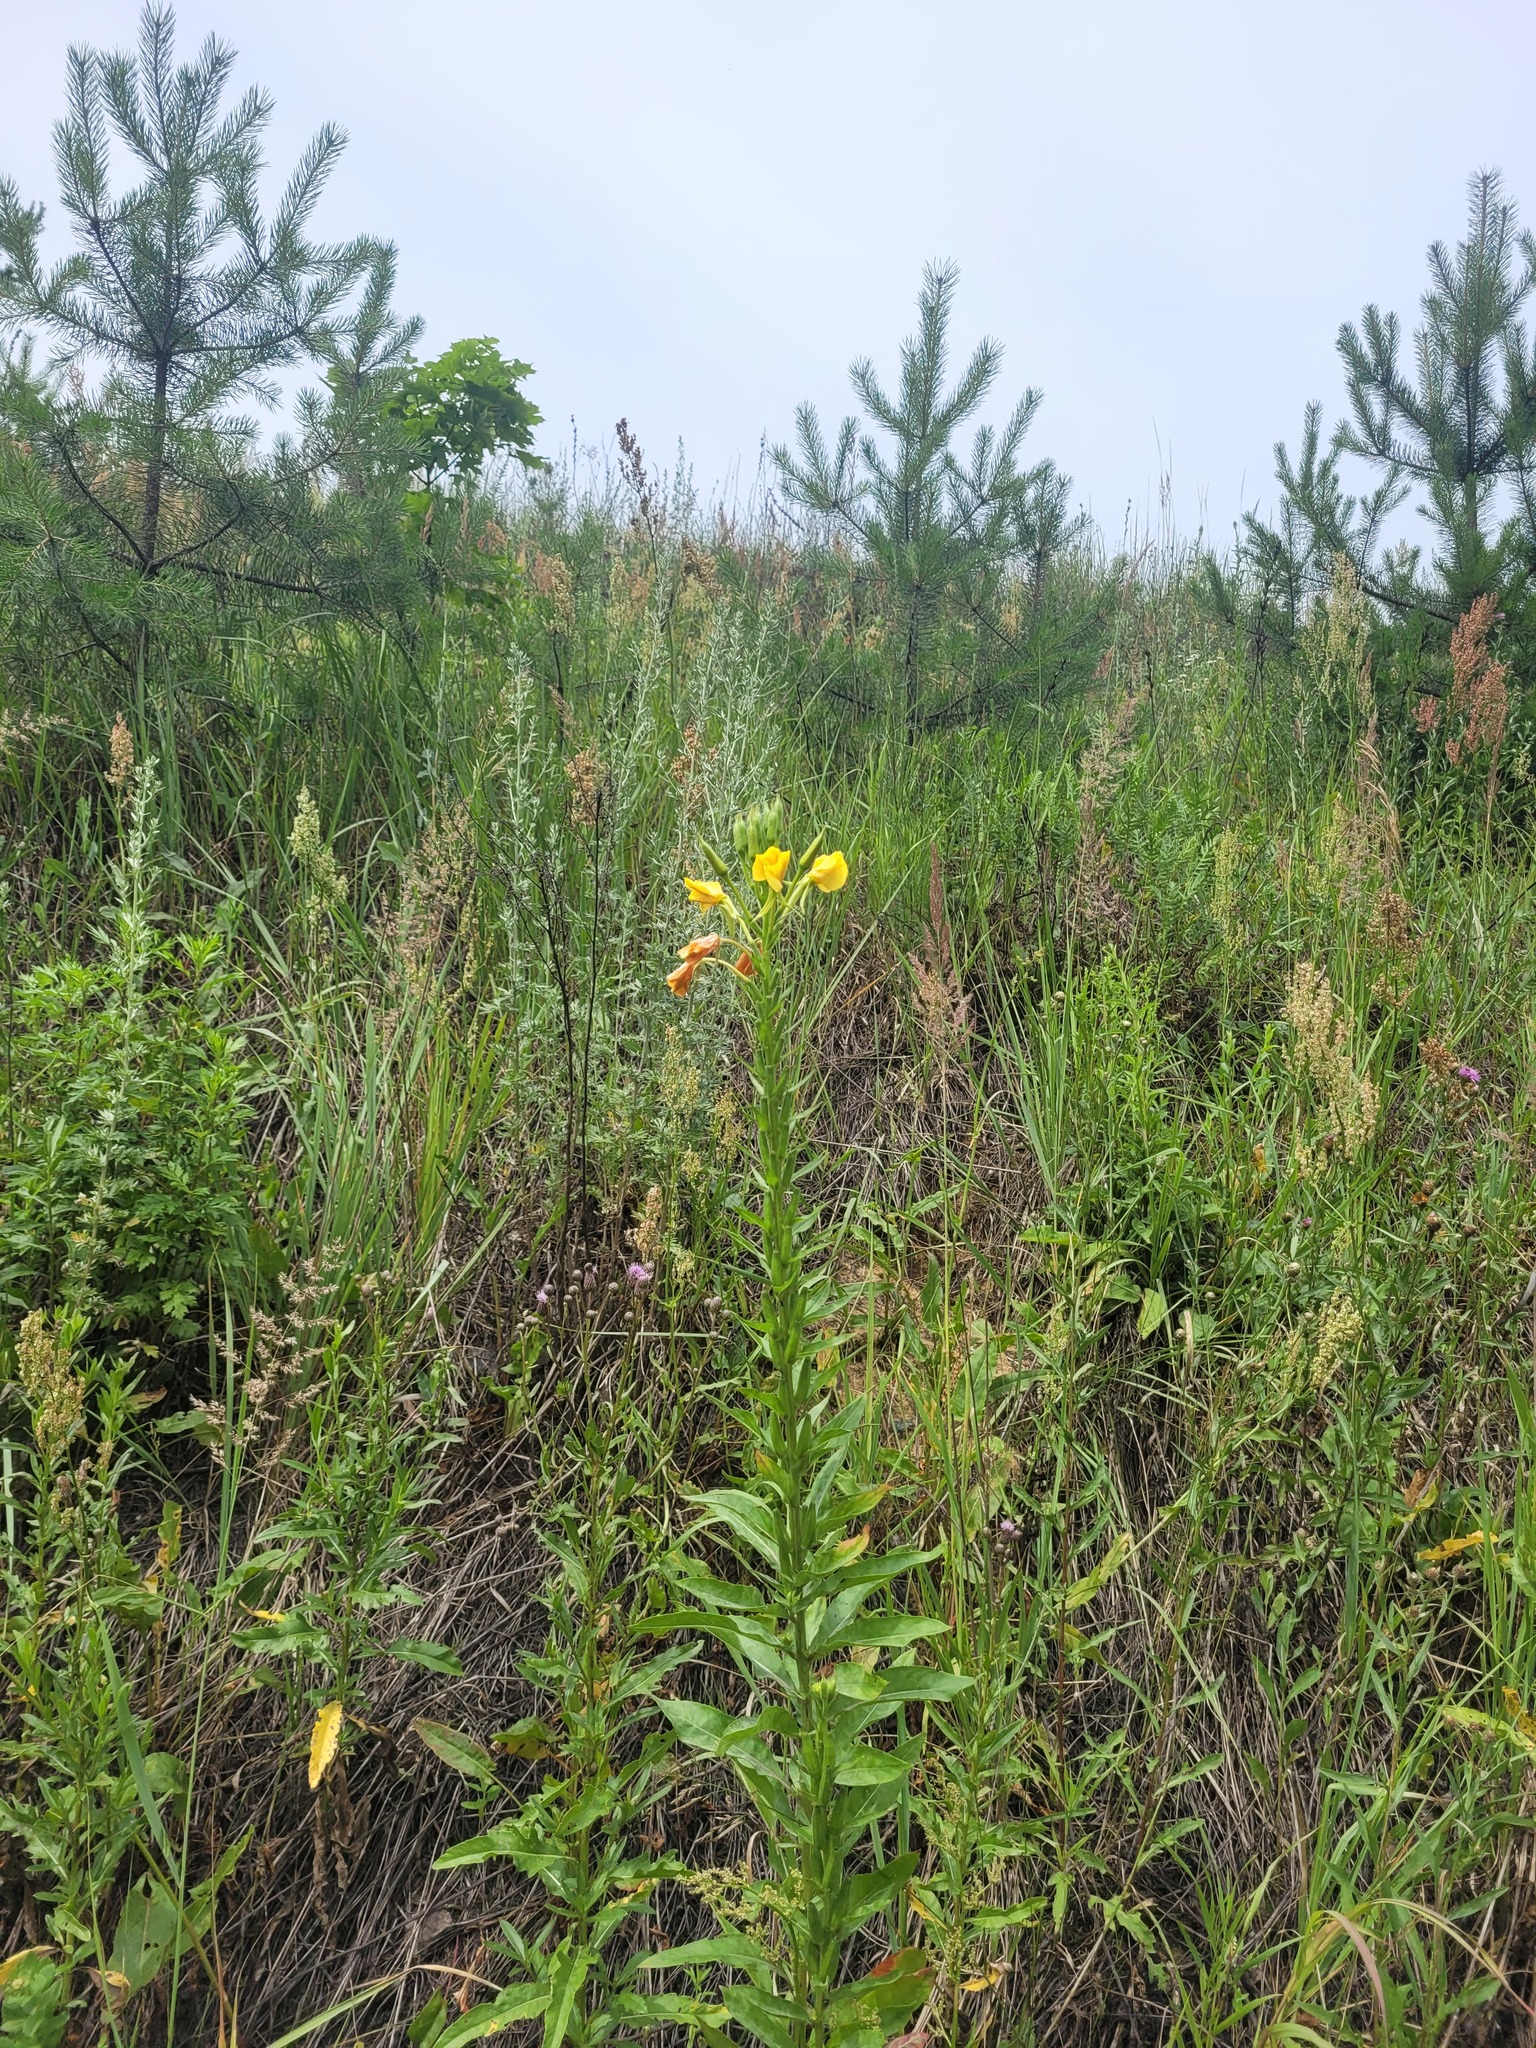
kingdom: Plantae
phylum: Tracheophyta
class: Magnoliopsida
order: Myrtales
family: Onagraceae
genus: Oenothera
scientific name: Oenothera biennis
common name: Common evening-primrose
